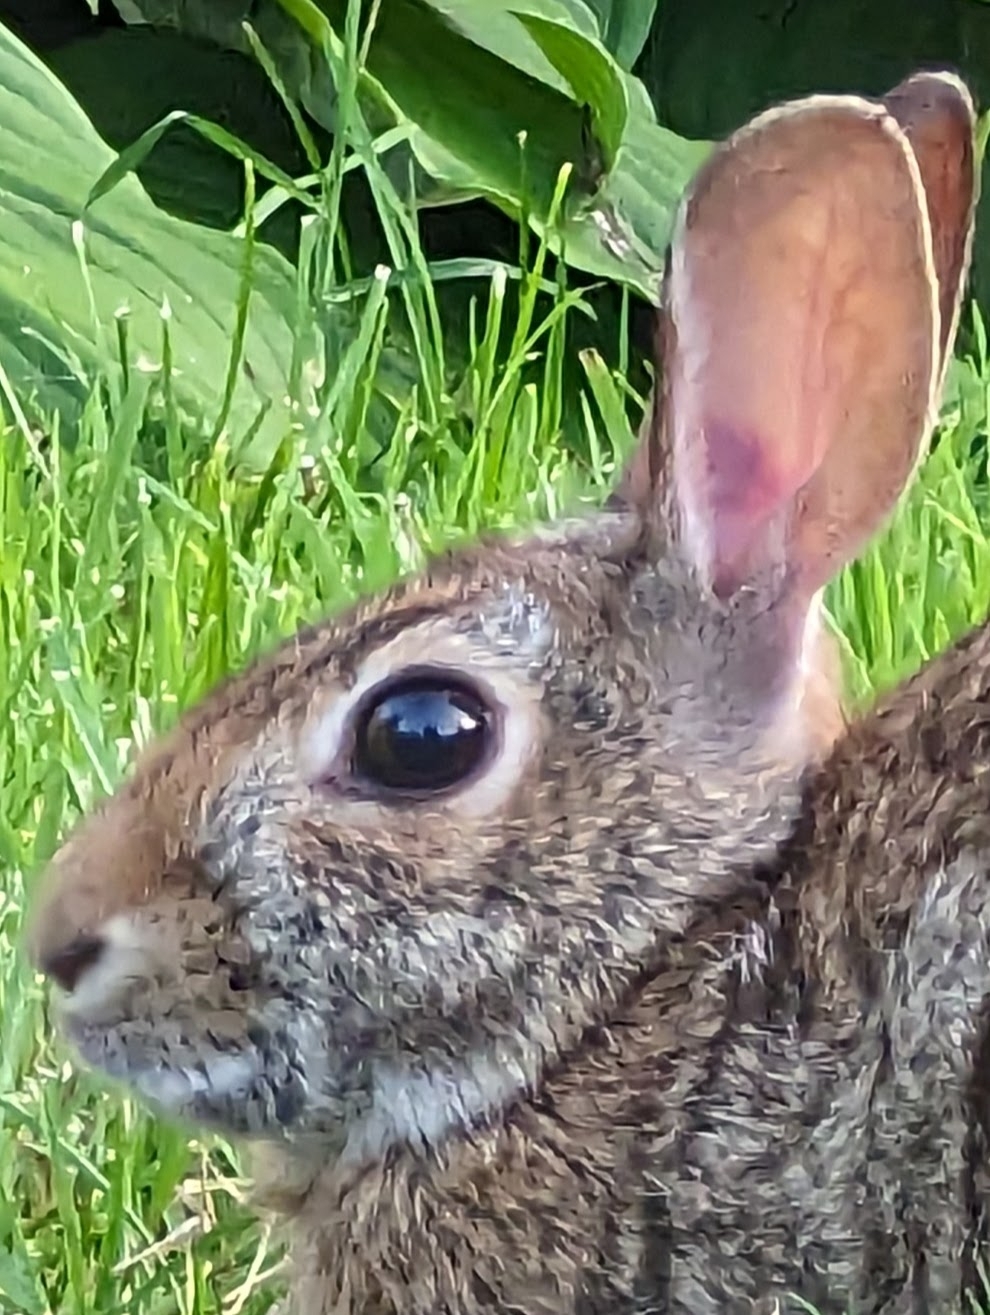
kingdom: Animalia
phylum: Chordata
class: Mammalia
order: Lagomorpha
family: Leporidae
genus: Sylvilagus
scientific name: Sylvilagus floridanus
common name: Eastern cottontail
